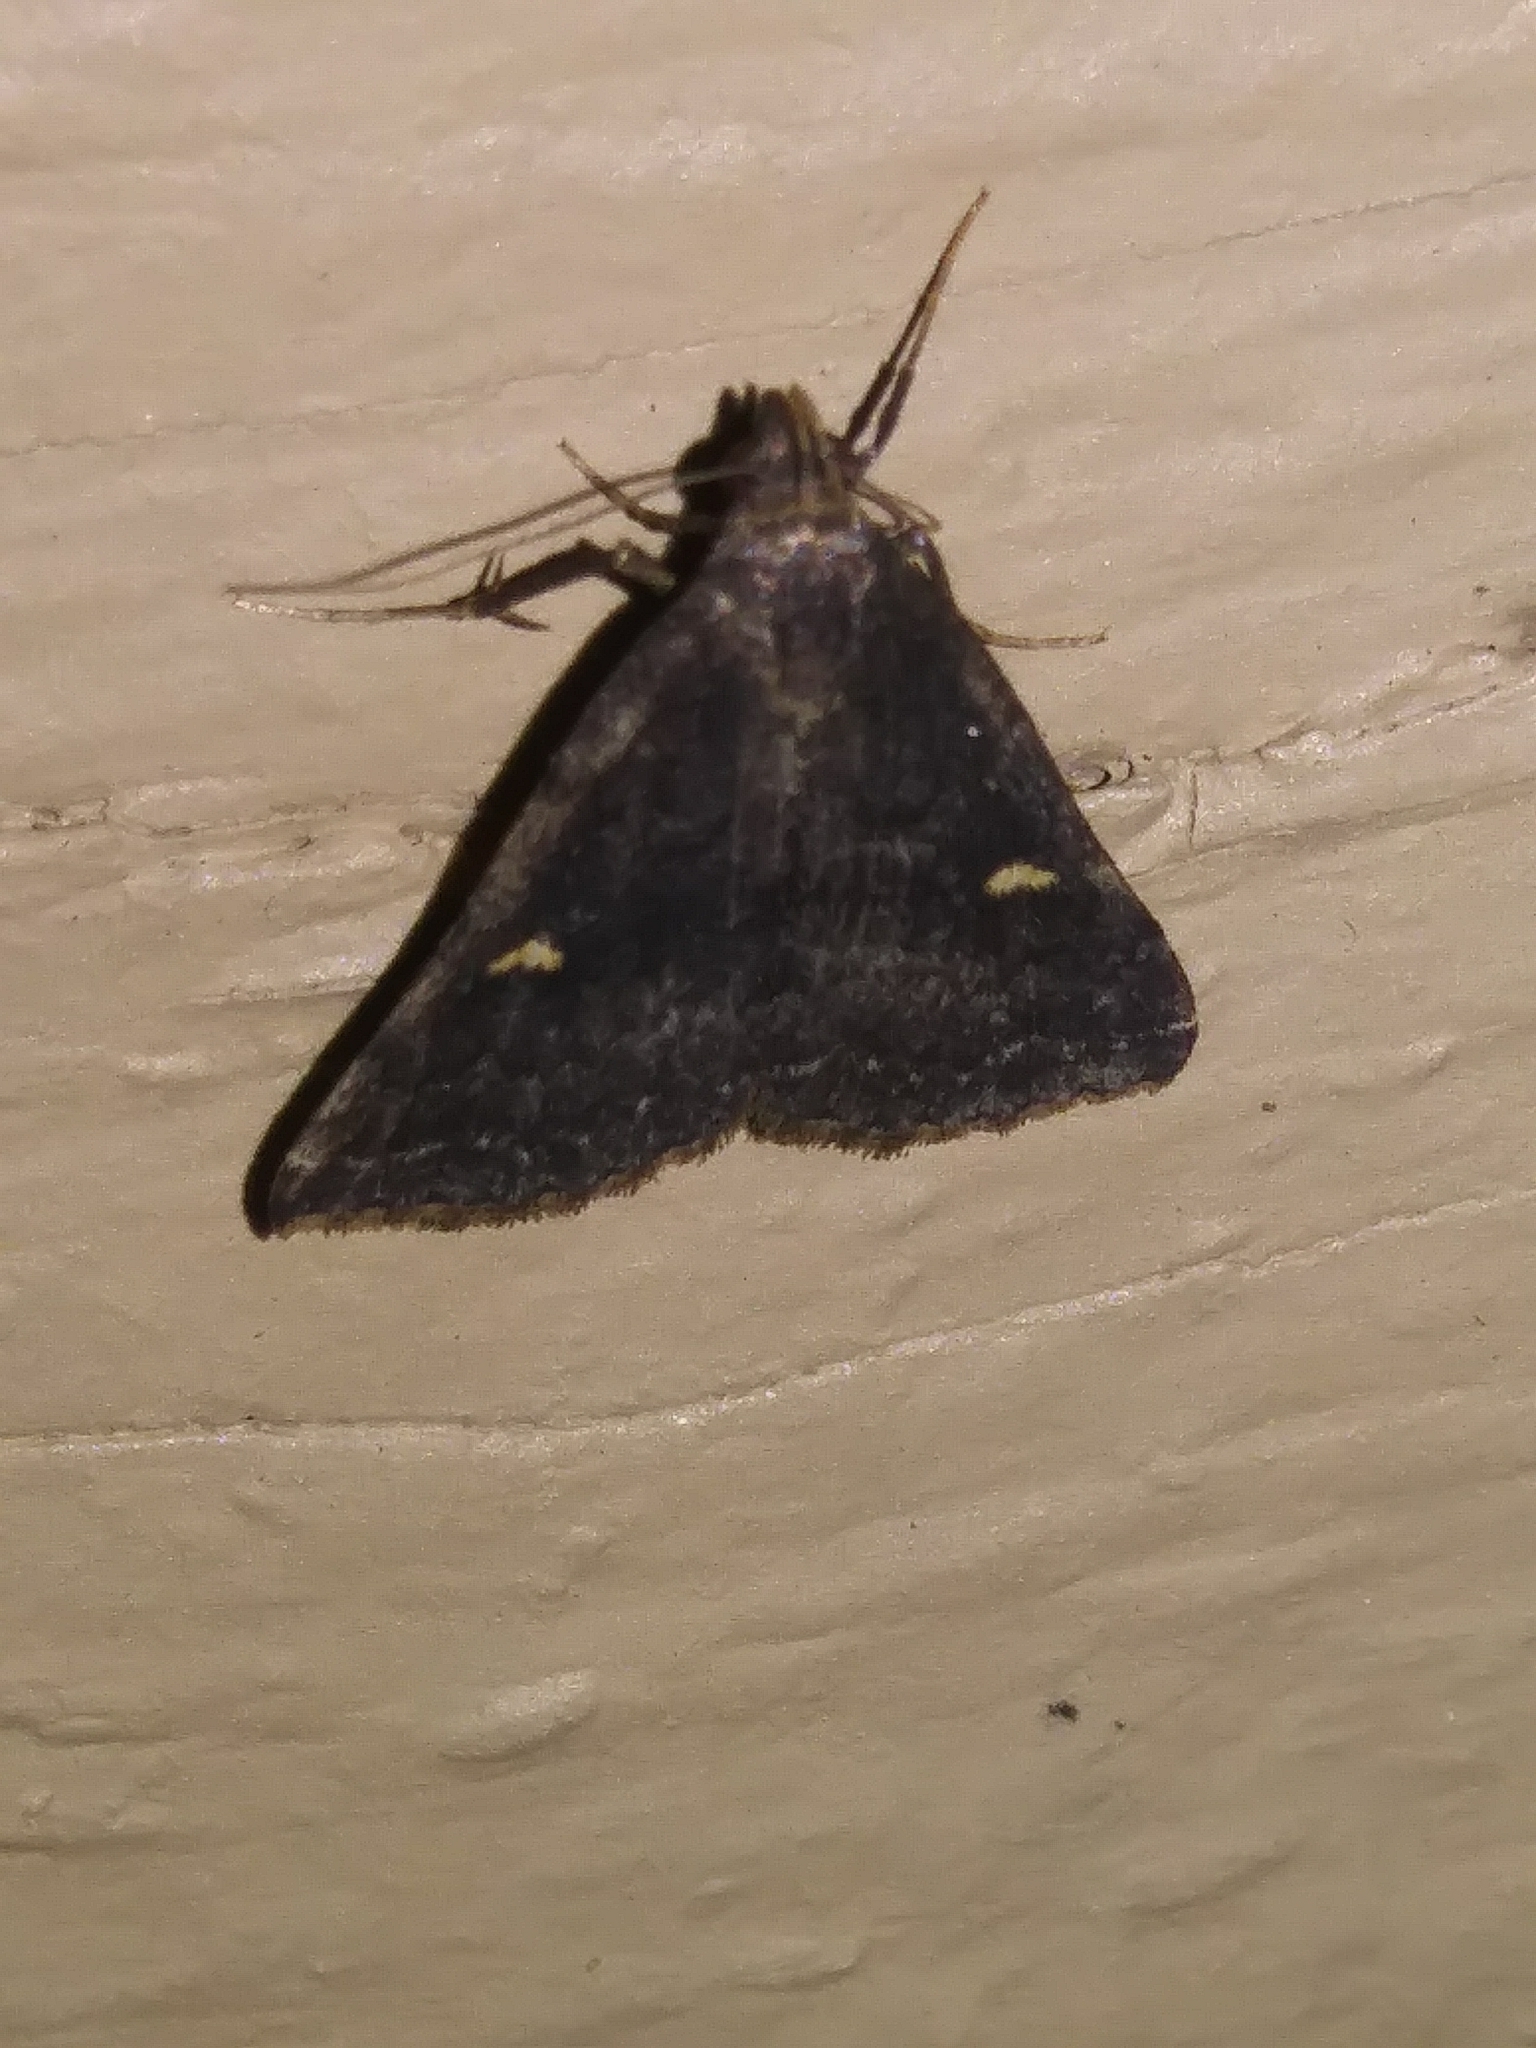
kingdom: Animalia
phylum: Arthropoda
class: Insecta
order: Lepidoptera
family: Erebidae
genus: Tetanolita
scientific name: Tetanolita mynesalis
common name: Smoky tetanolita moth
